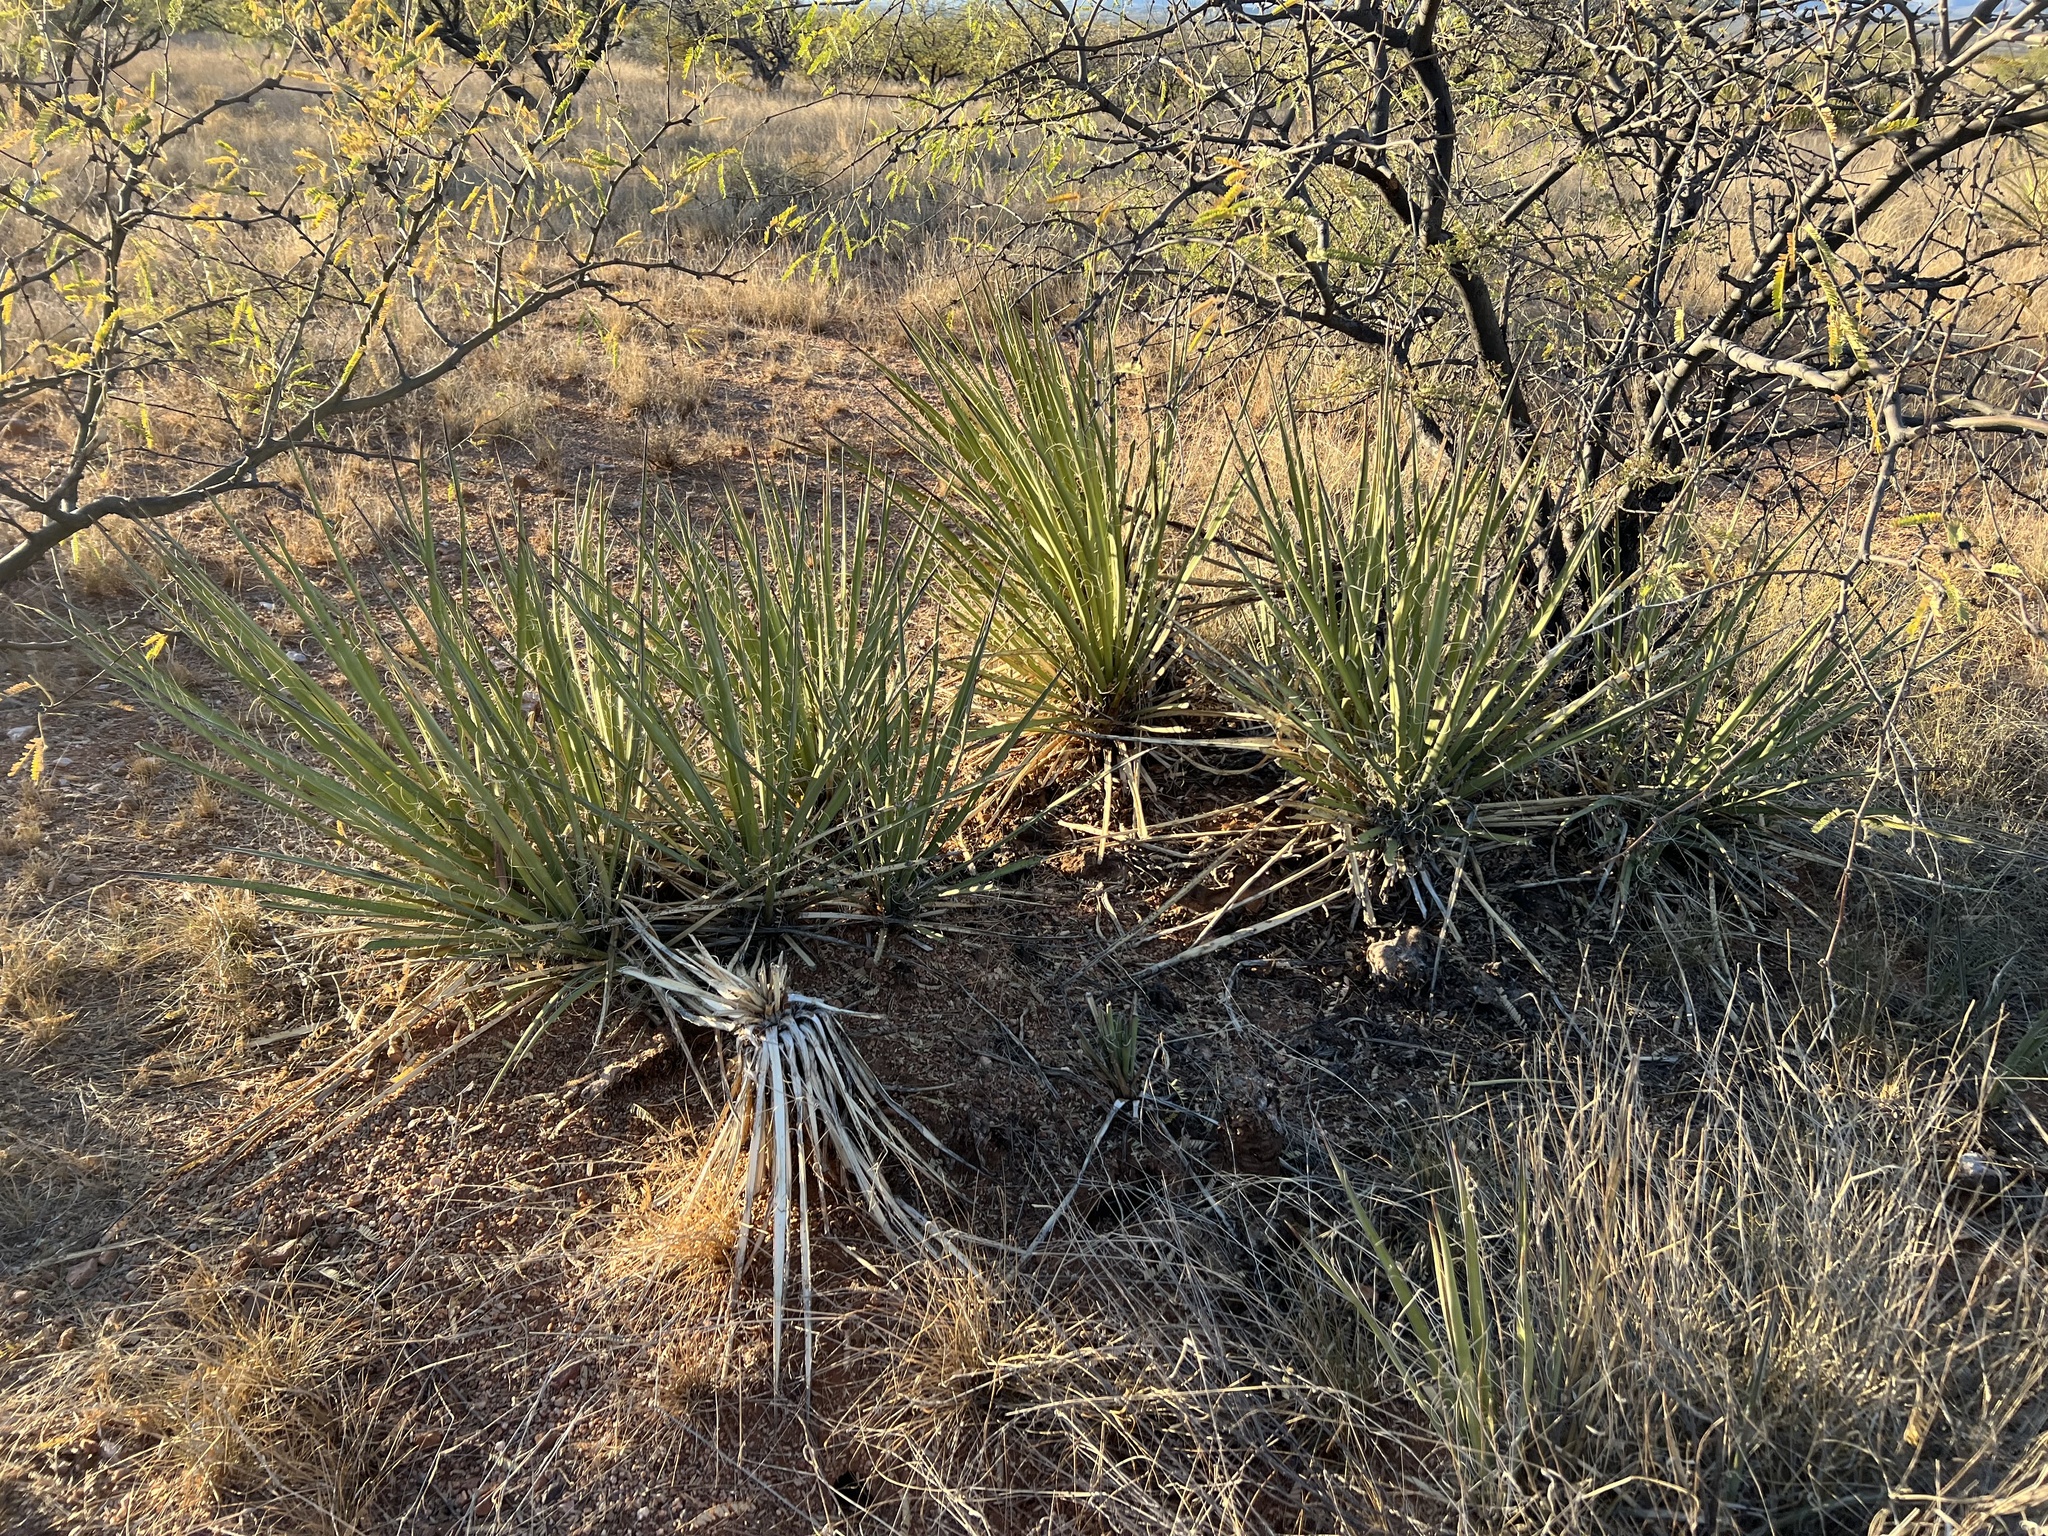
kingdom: Plantae
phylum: Tracheophyta
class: Liliopsida
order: Asparagales
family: Asparagaceae
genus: Yucca
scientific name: Yucca baccata
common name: Banana yucca
